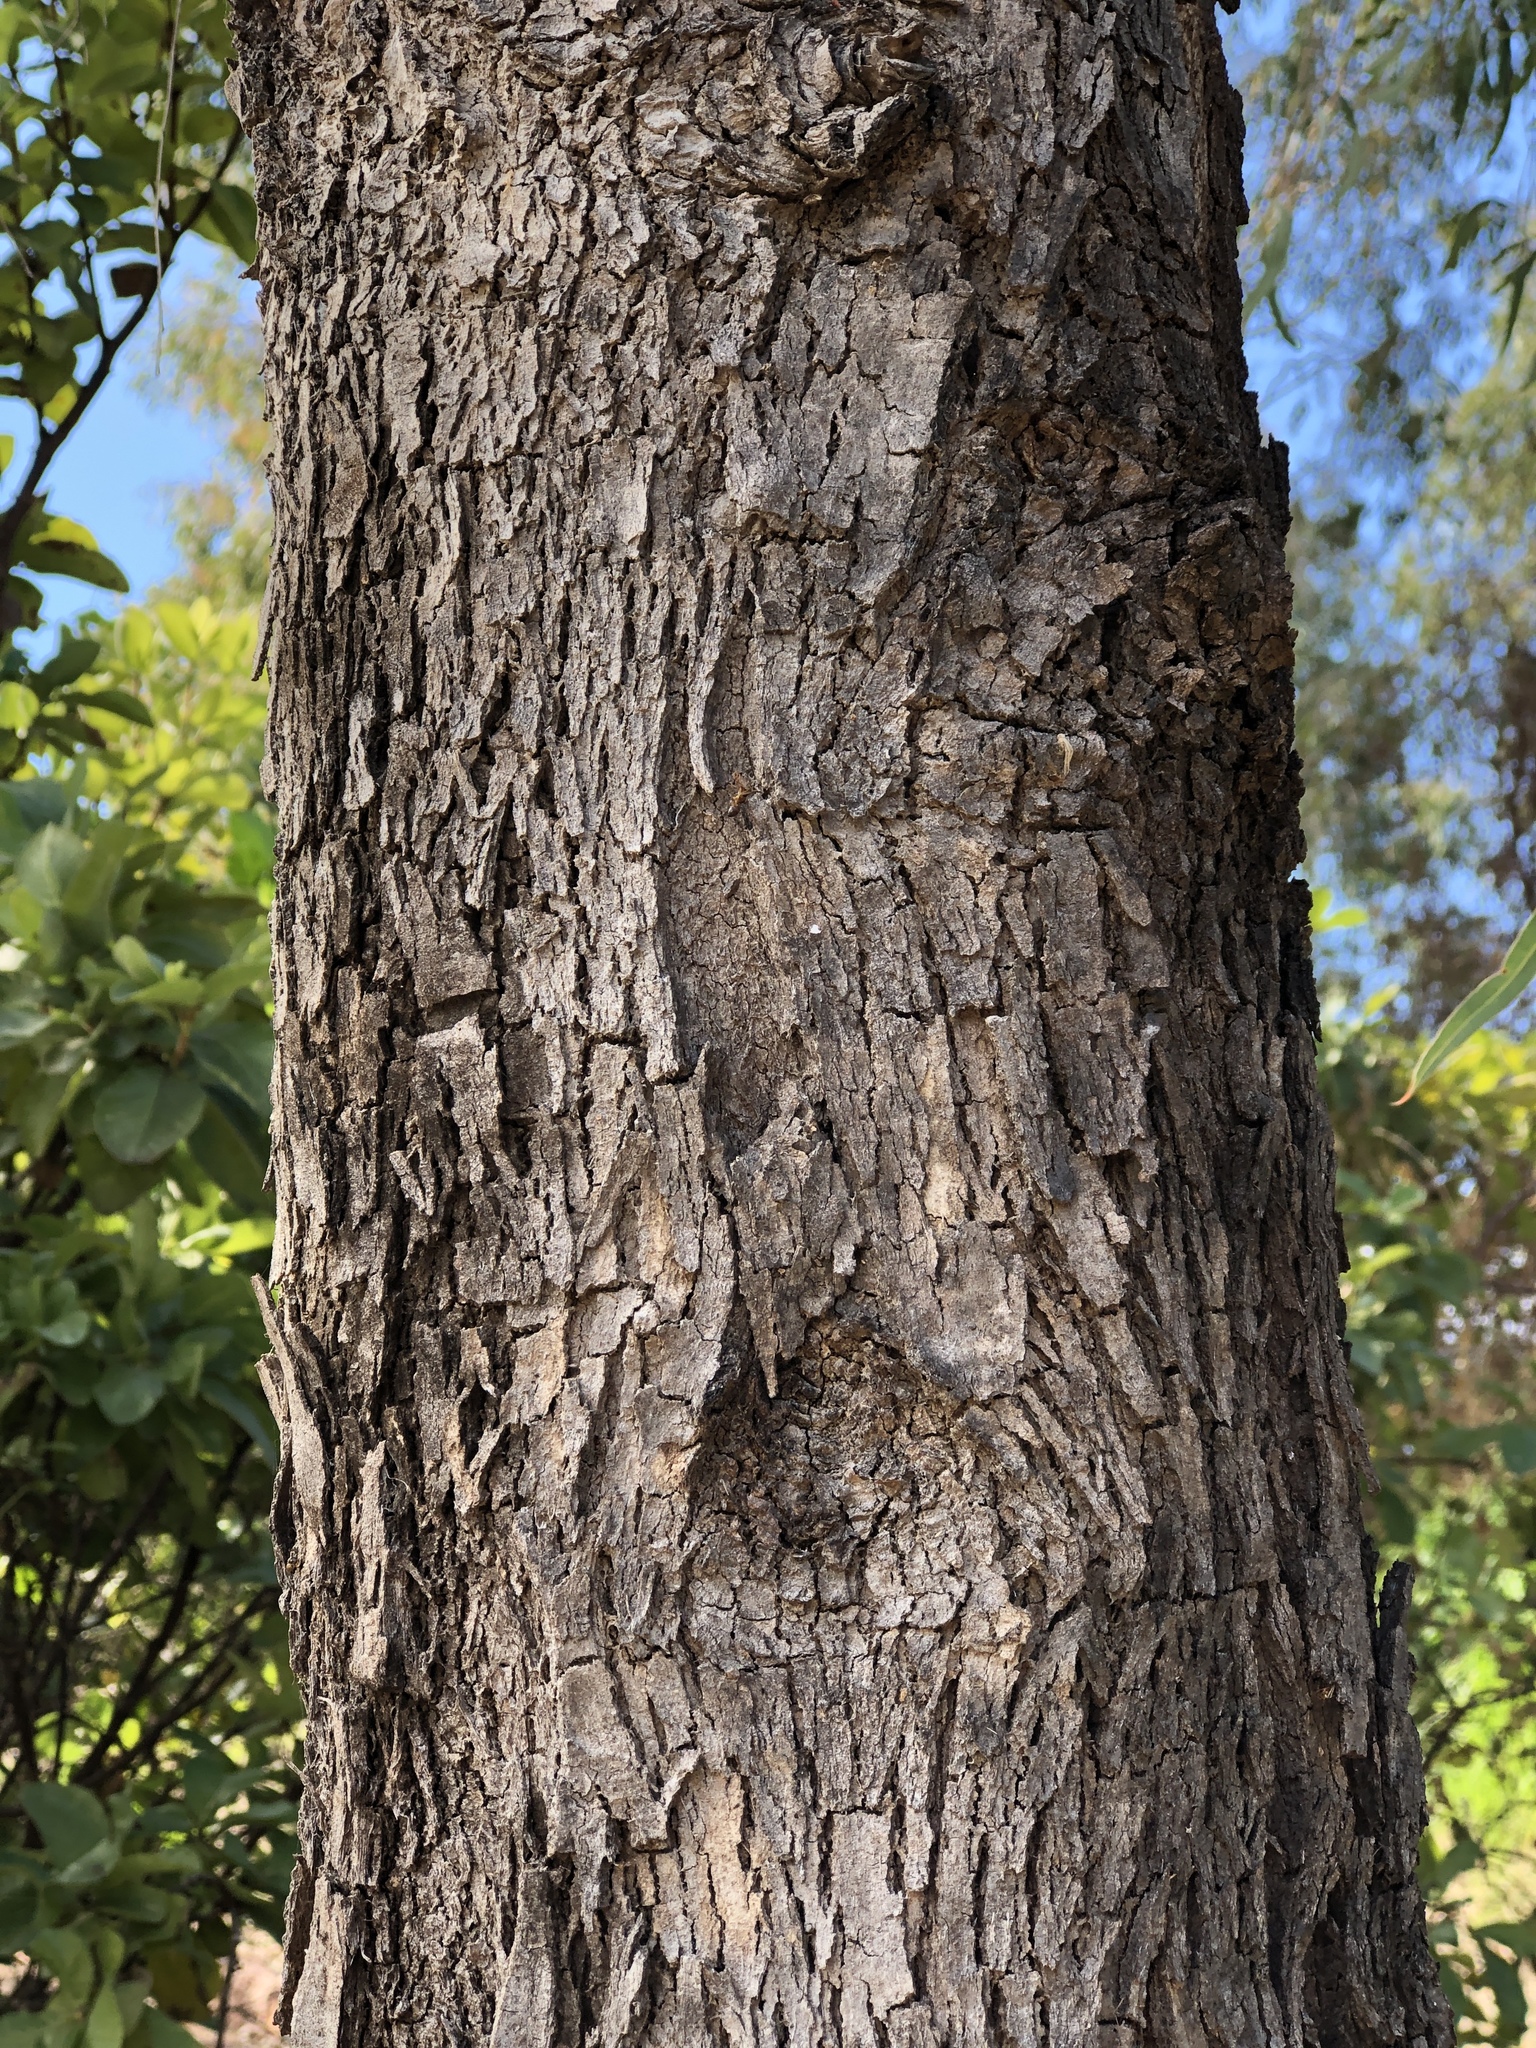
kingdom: Plantae
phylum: Tracheophyta
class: Magnoliopsida
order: Myrtales
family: Myrtaceae
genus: Corymbia
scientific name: Corymbia tessellaris
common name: Carbeen
